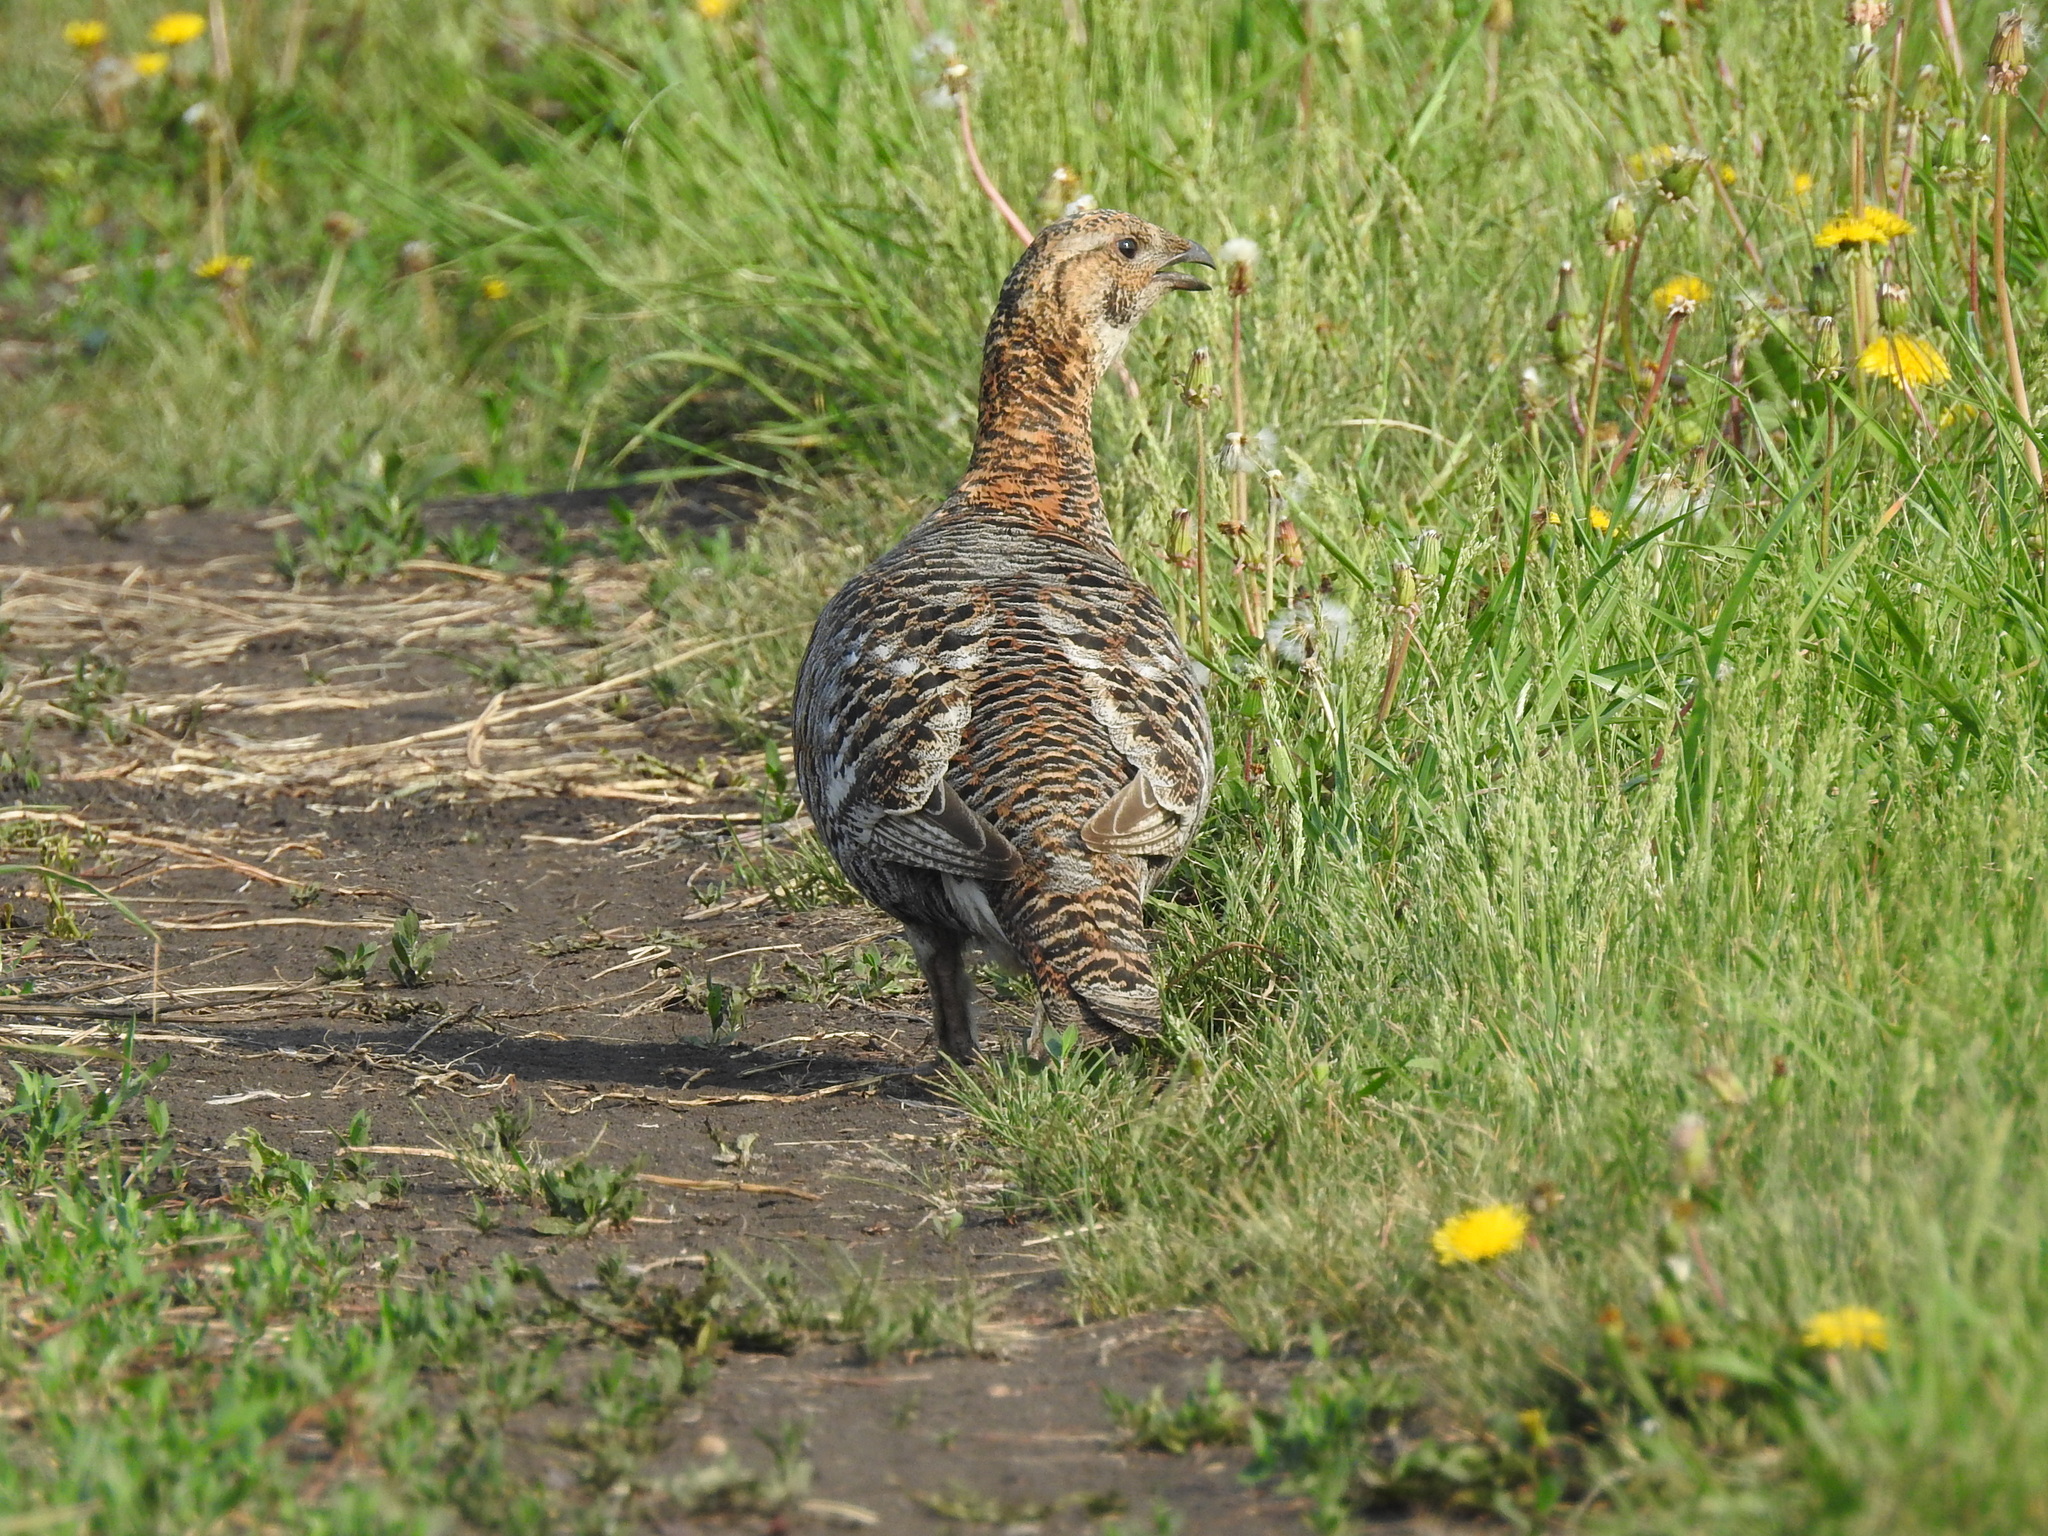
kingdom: Animalia
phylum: Chordata
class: Aves
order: Galliformes
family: Phasianidae
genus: Lyrurus
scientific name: Lyrurus tetrix
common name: Black grouse
